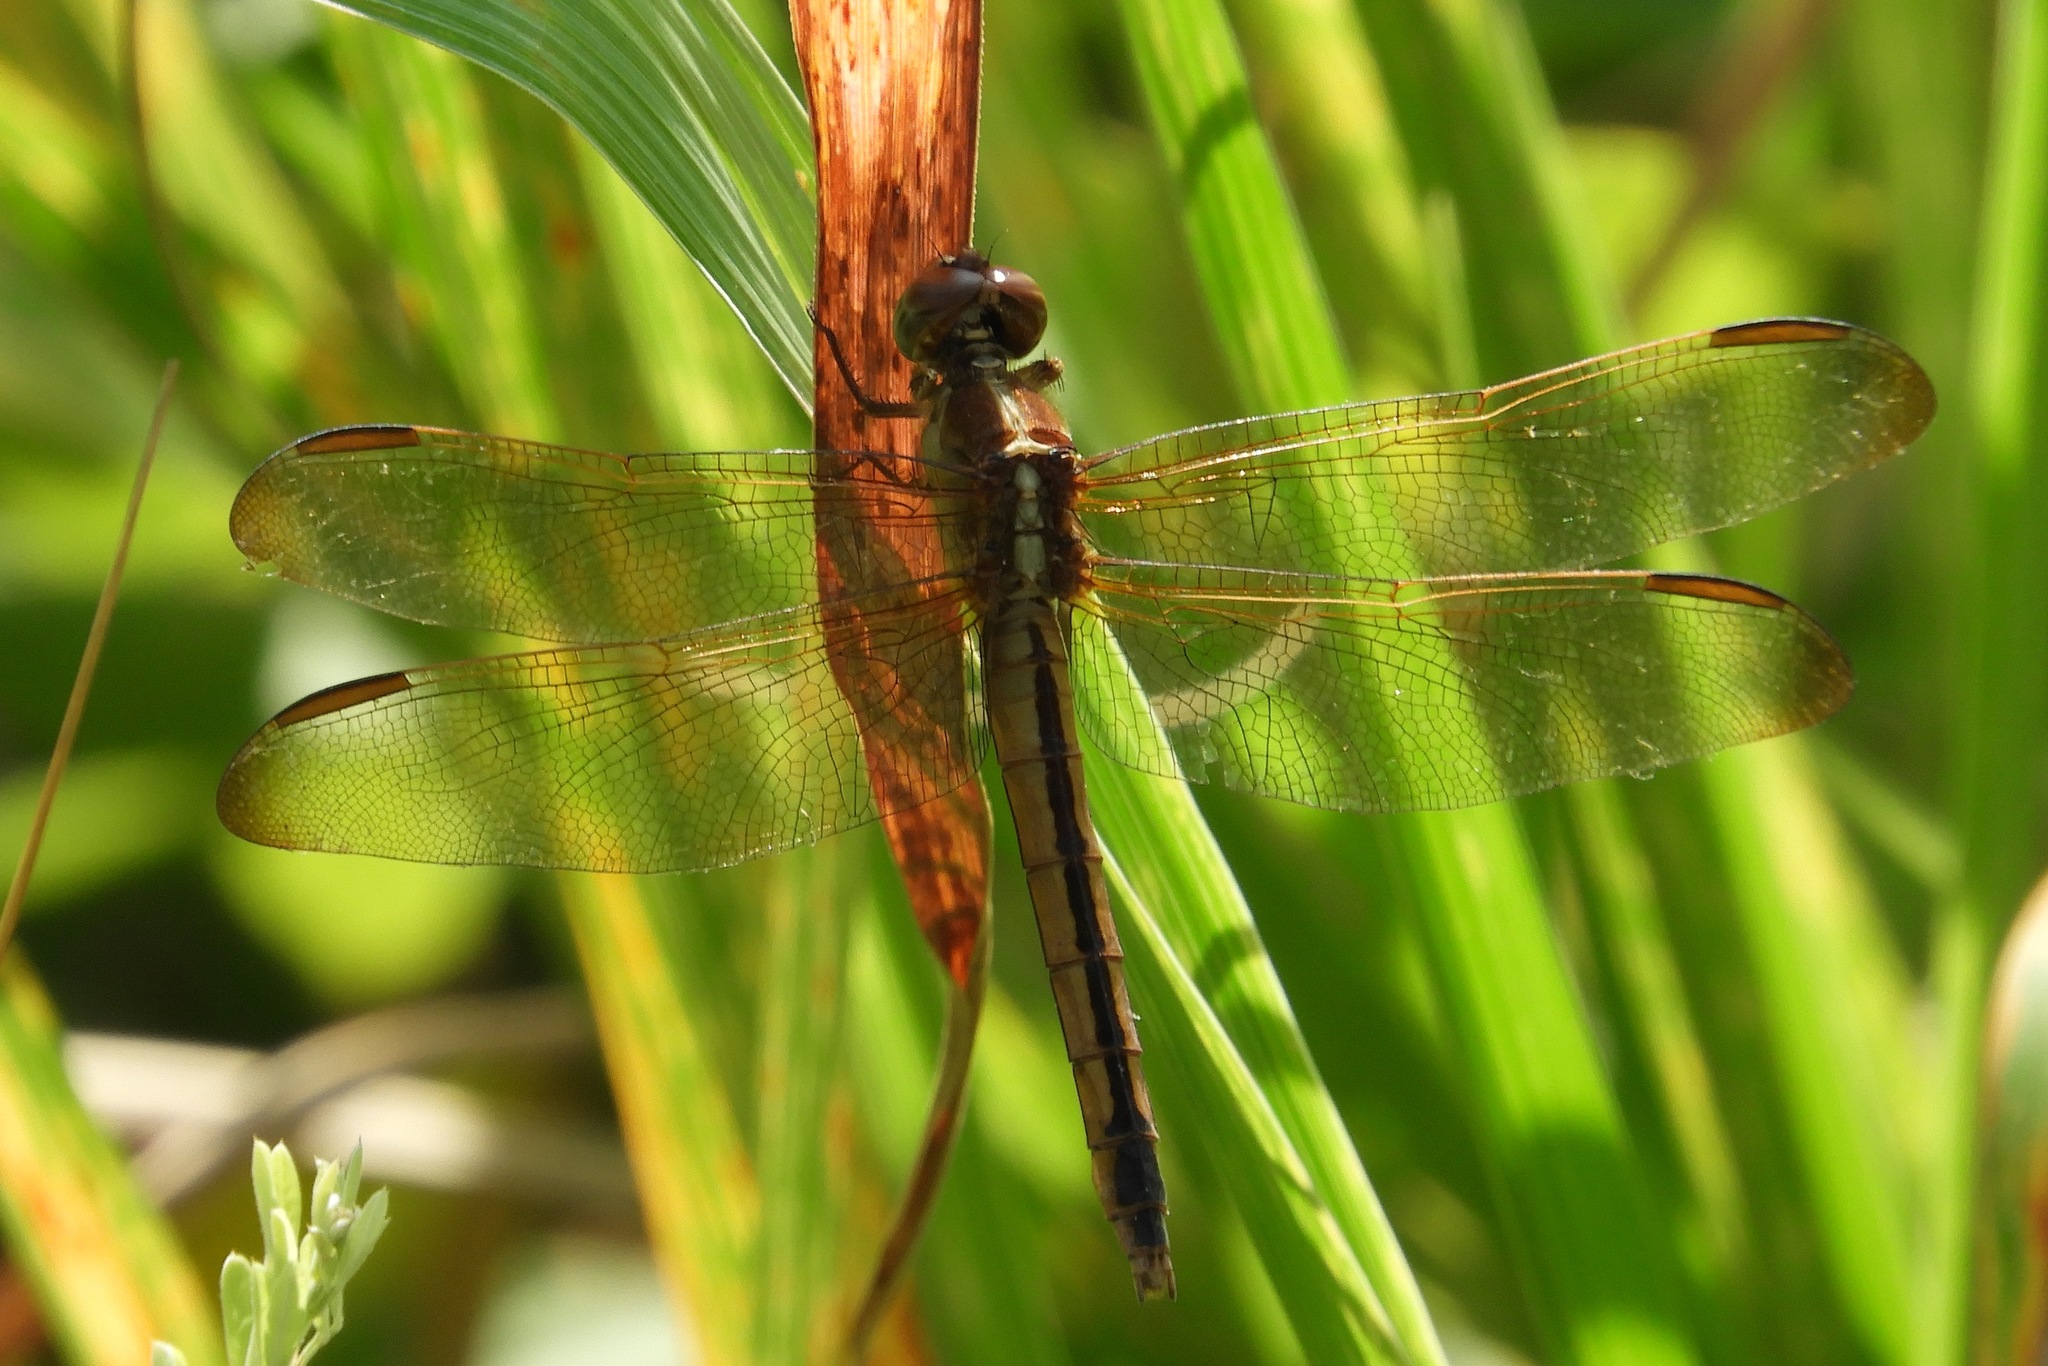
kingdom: Animalia
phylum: Arthropoda
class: Insecta
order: Odonata
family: Libellulidae
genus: Libellula
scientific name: Libellula needhami
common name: Needham's skimmer
